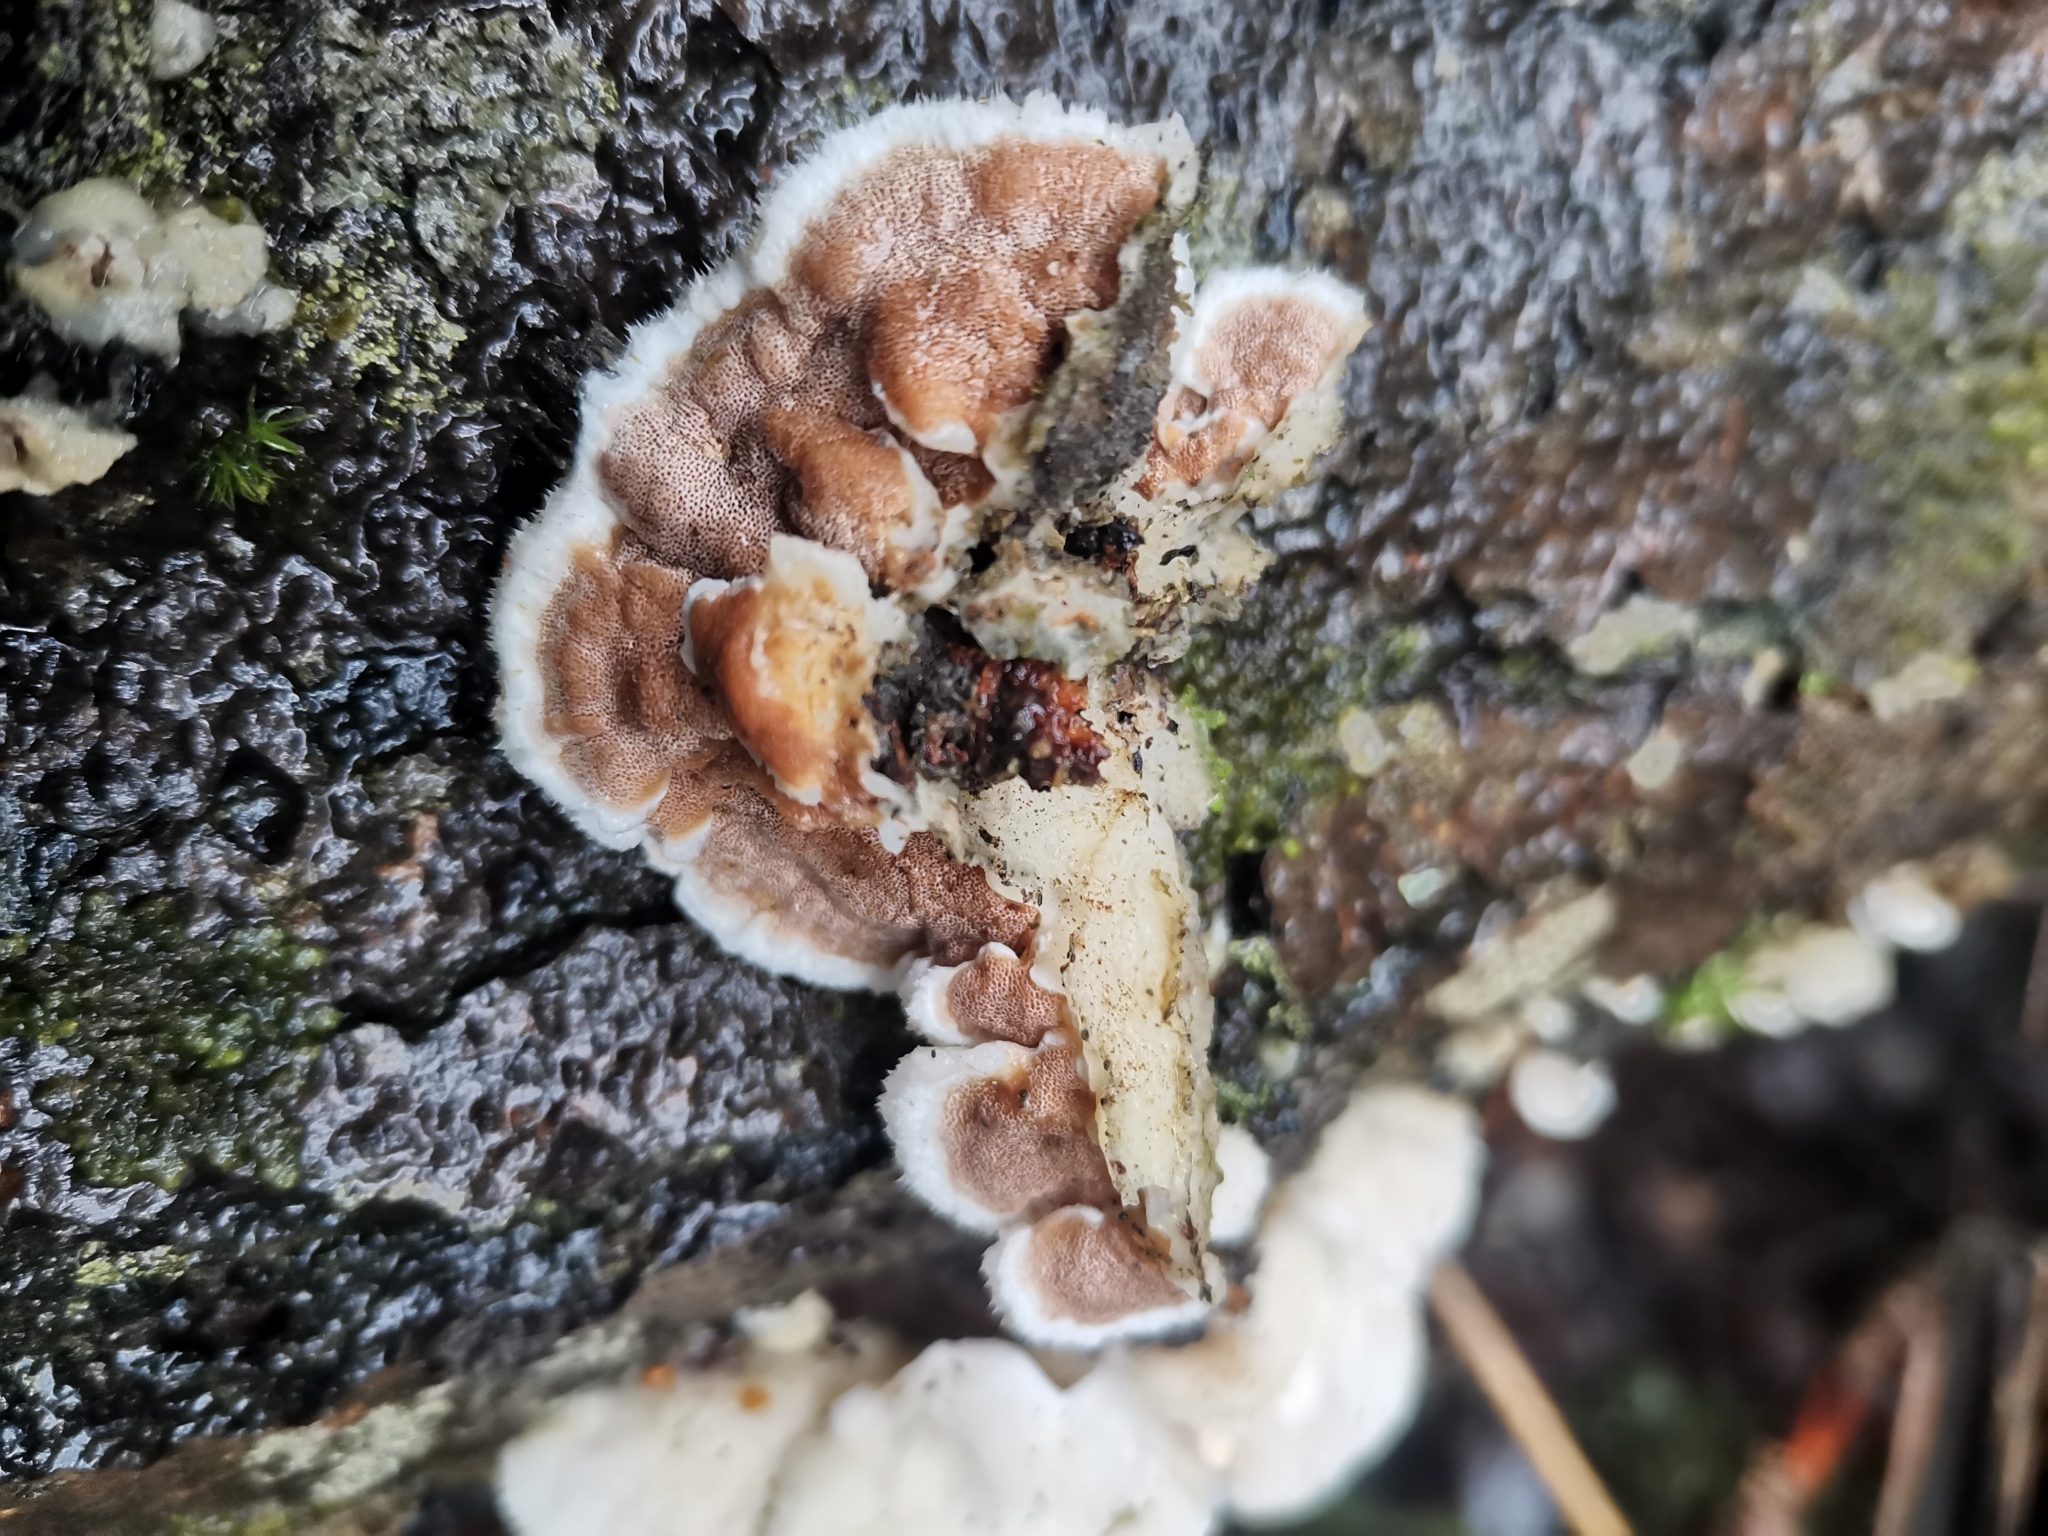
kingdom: Fungi
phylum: Basidiomycota
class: Agaricomycetes
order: Polyporales
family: Irpicaceae
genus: Vitreoporus
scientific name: Vitreoporus dichrous
